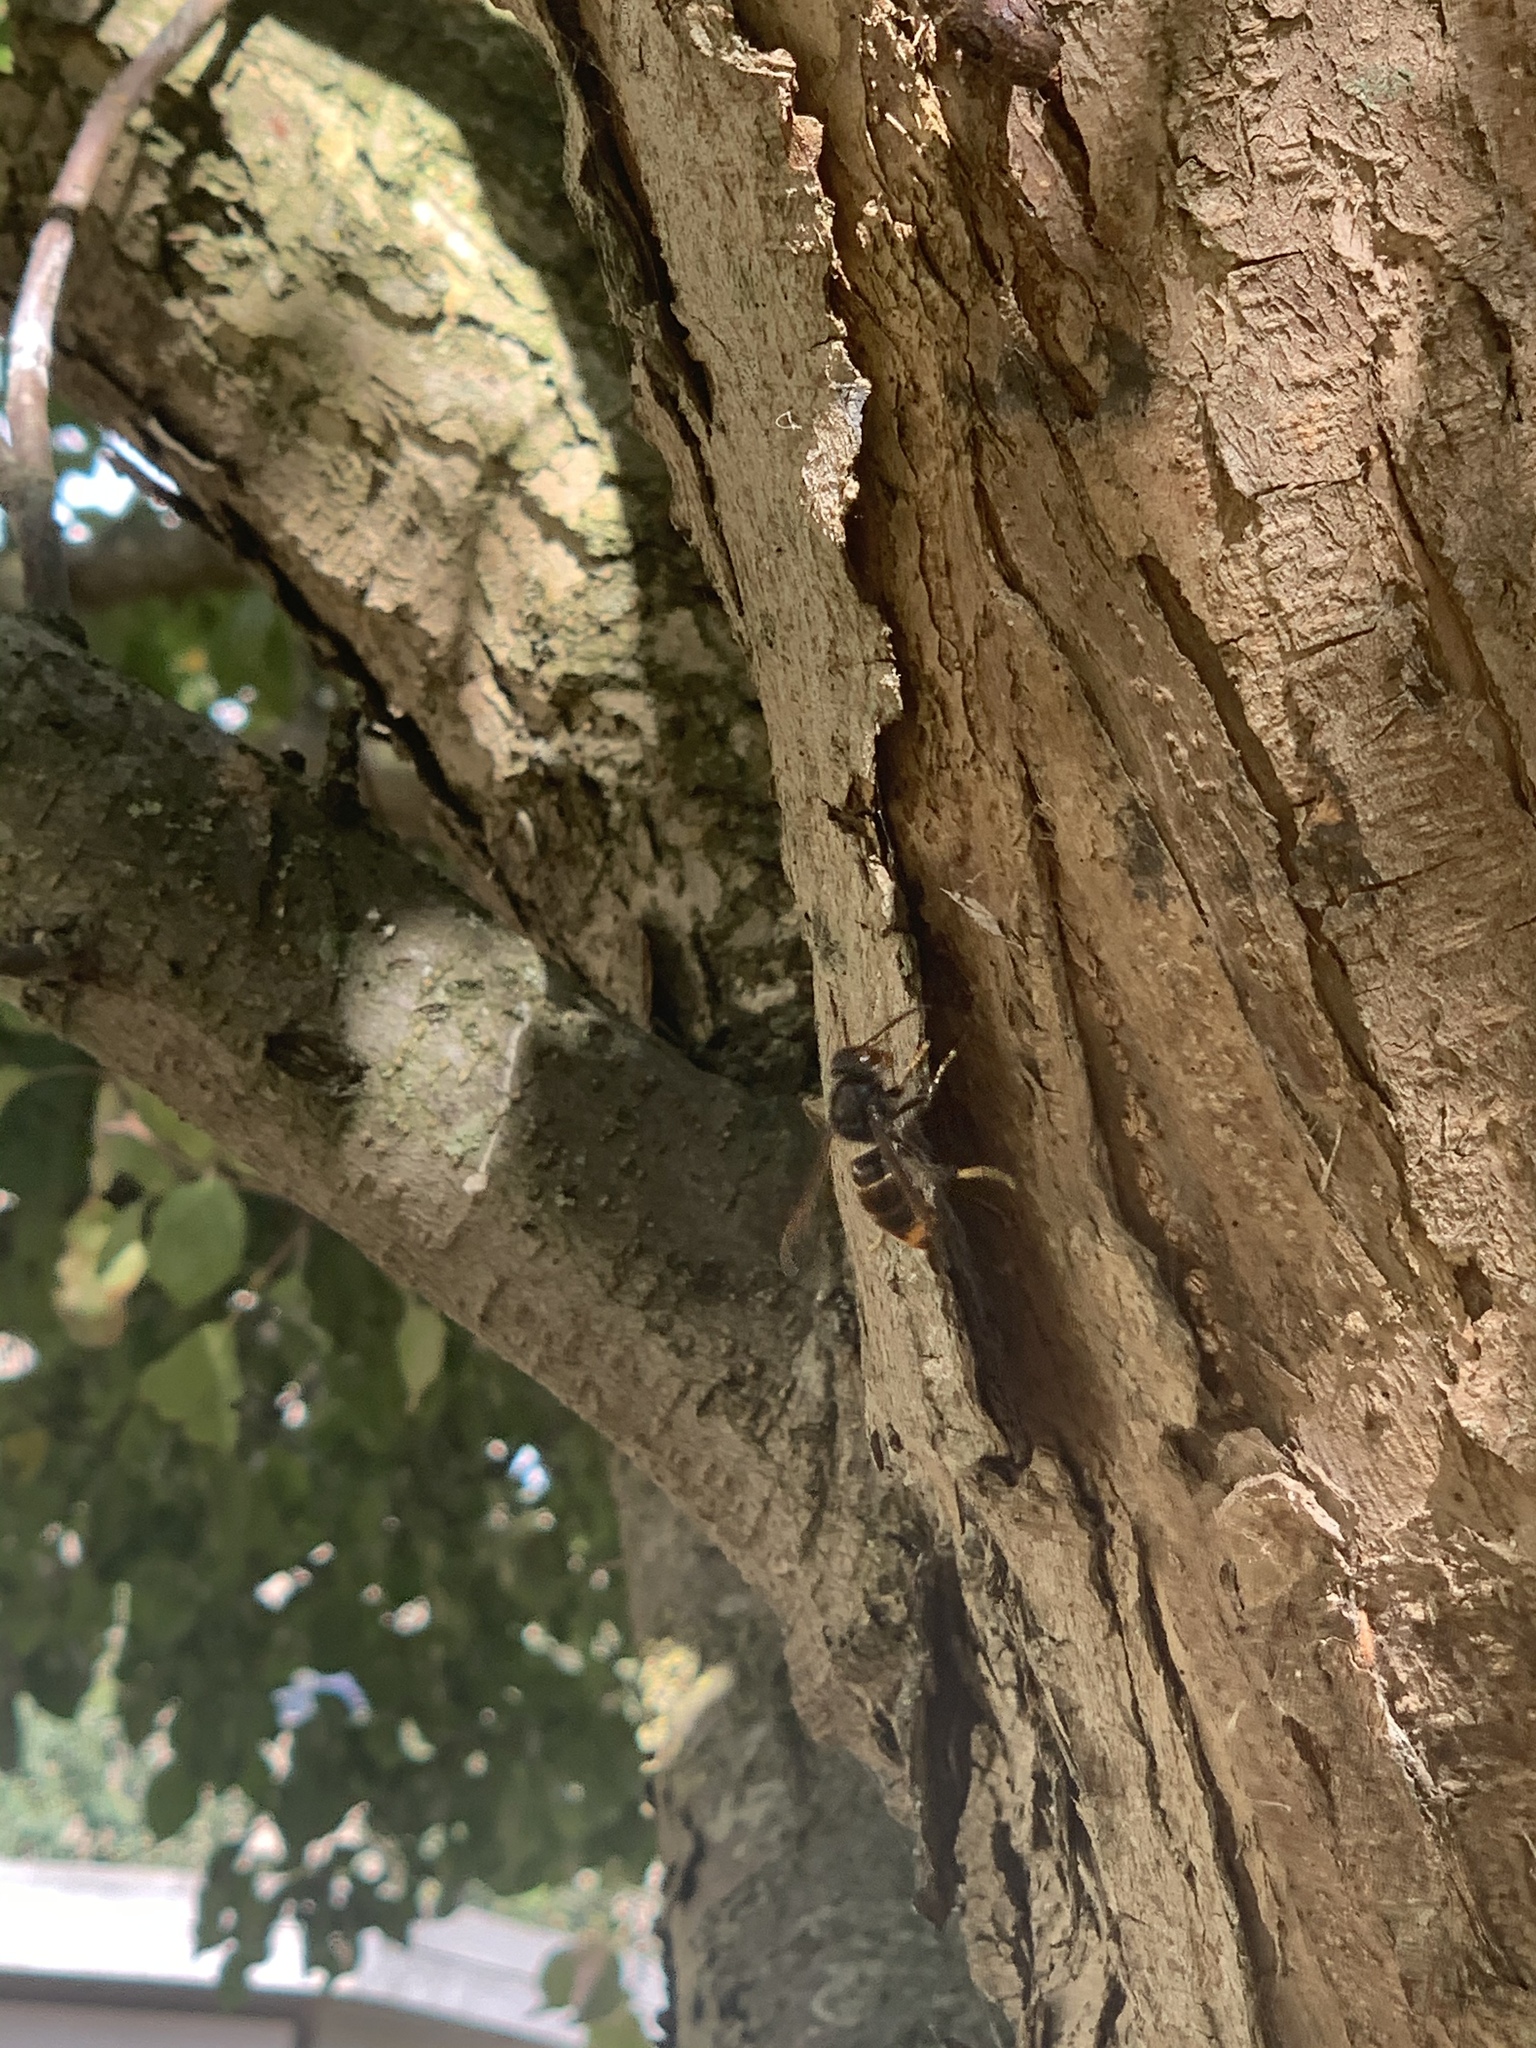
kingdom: Animalia
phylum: Arthropoda
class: Insecta
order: Hymenoptera
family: Vespidae
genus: Vespa
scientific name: Vespa velutina
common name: Asian hornet
